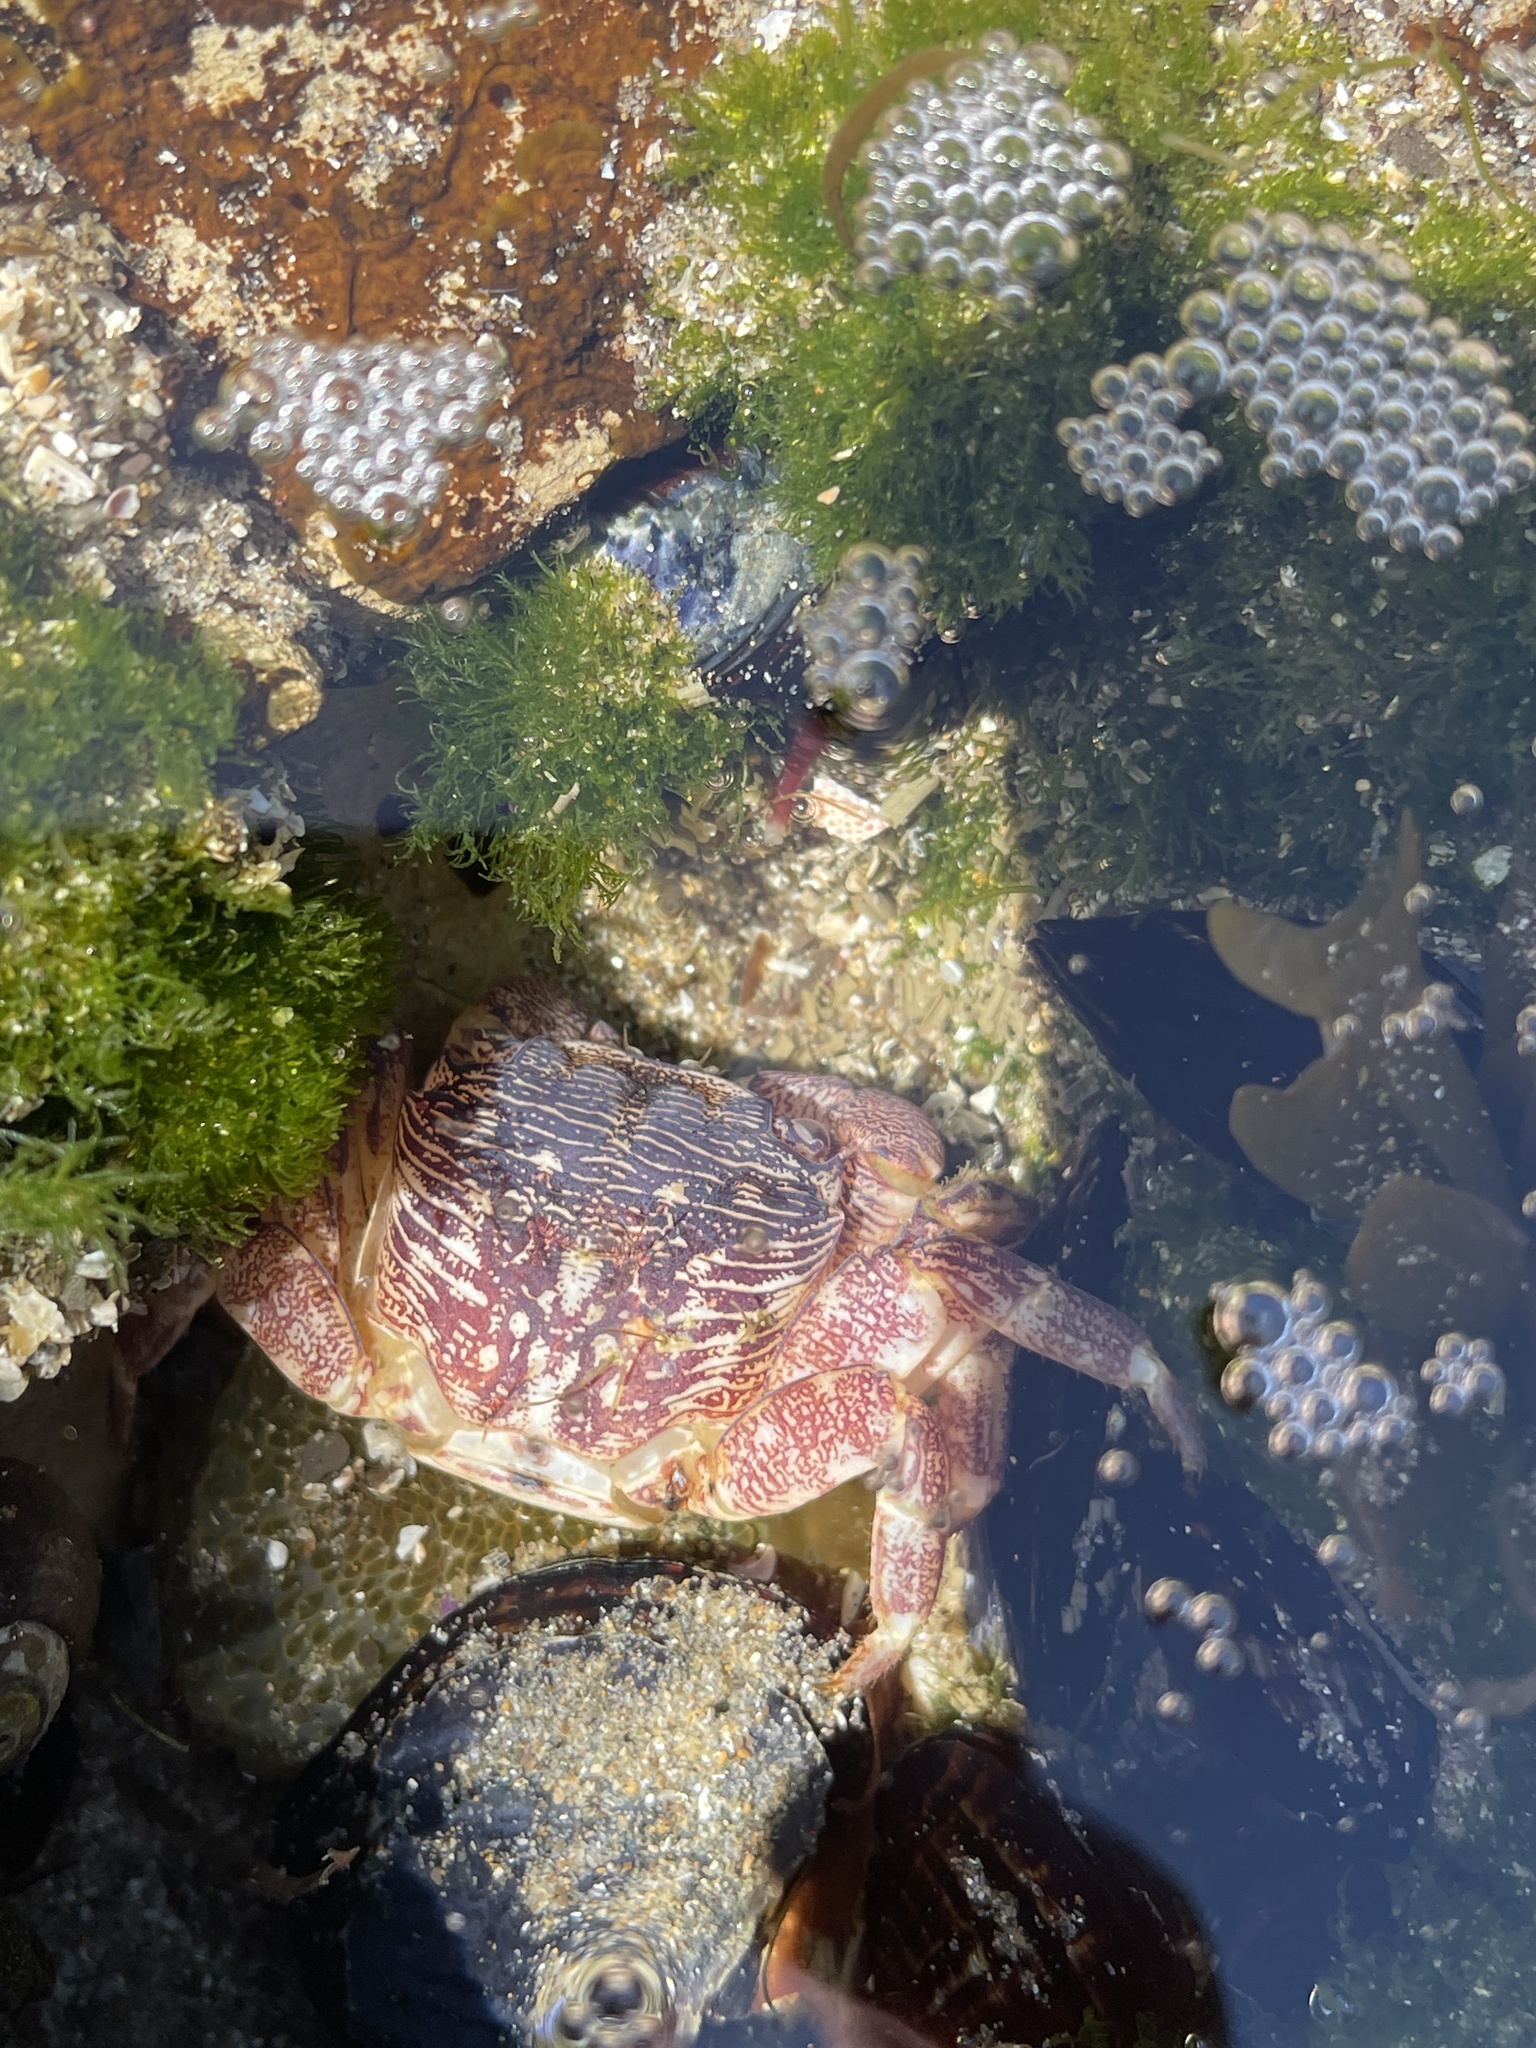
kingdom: Animalia
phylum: Arthropoda
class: Malacostraca
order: Decapoda
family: Grapsidae
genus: Pachygrapsus
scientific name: Pachygrapsus crassipes
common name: Striped shore crab
